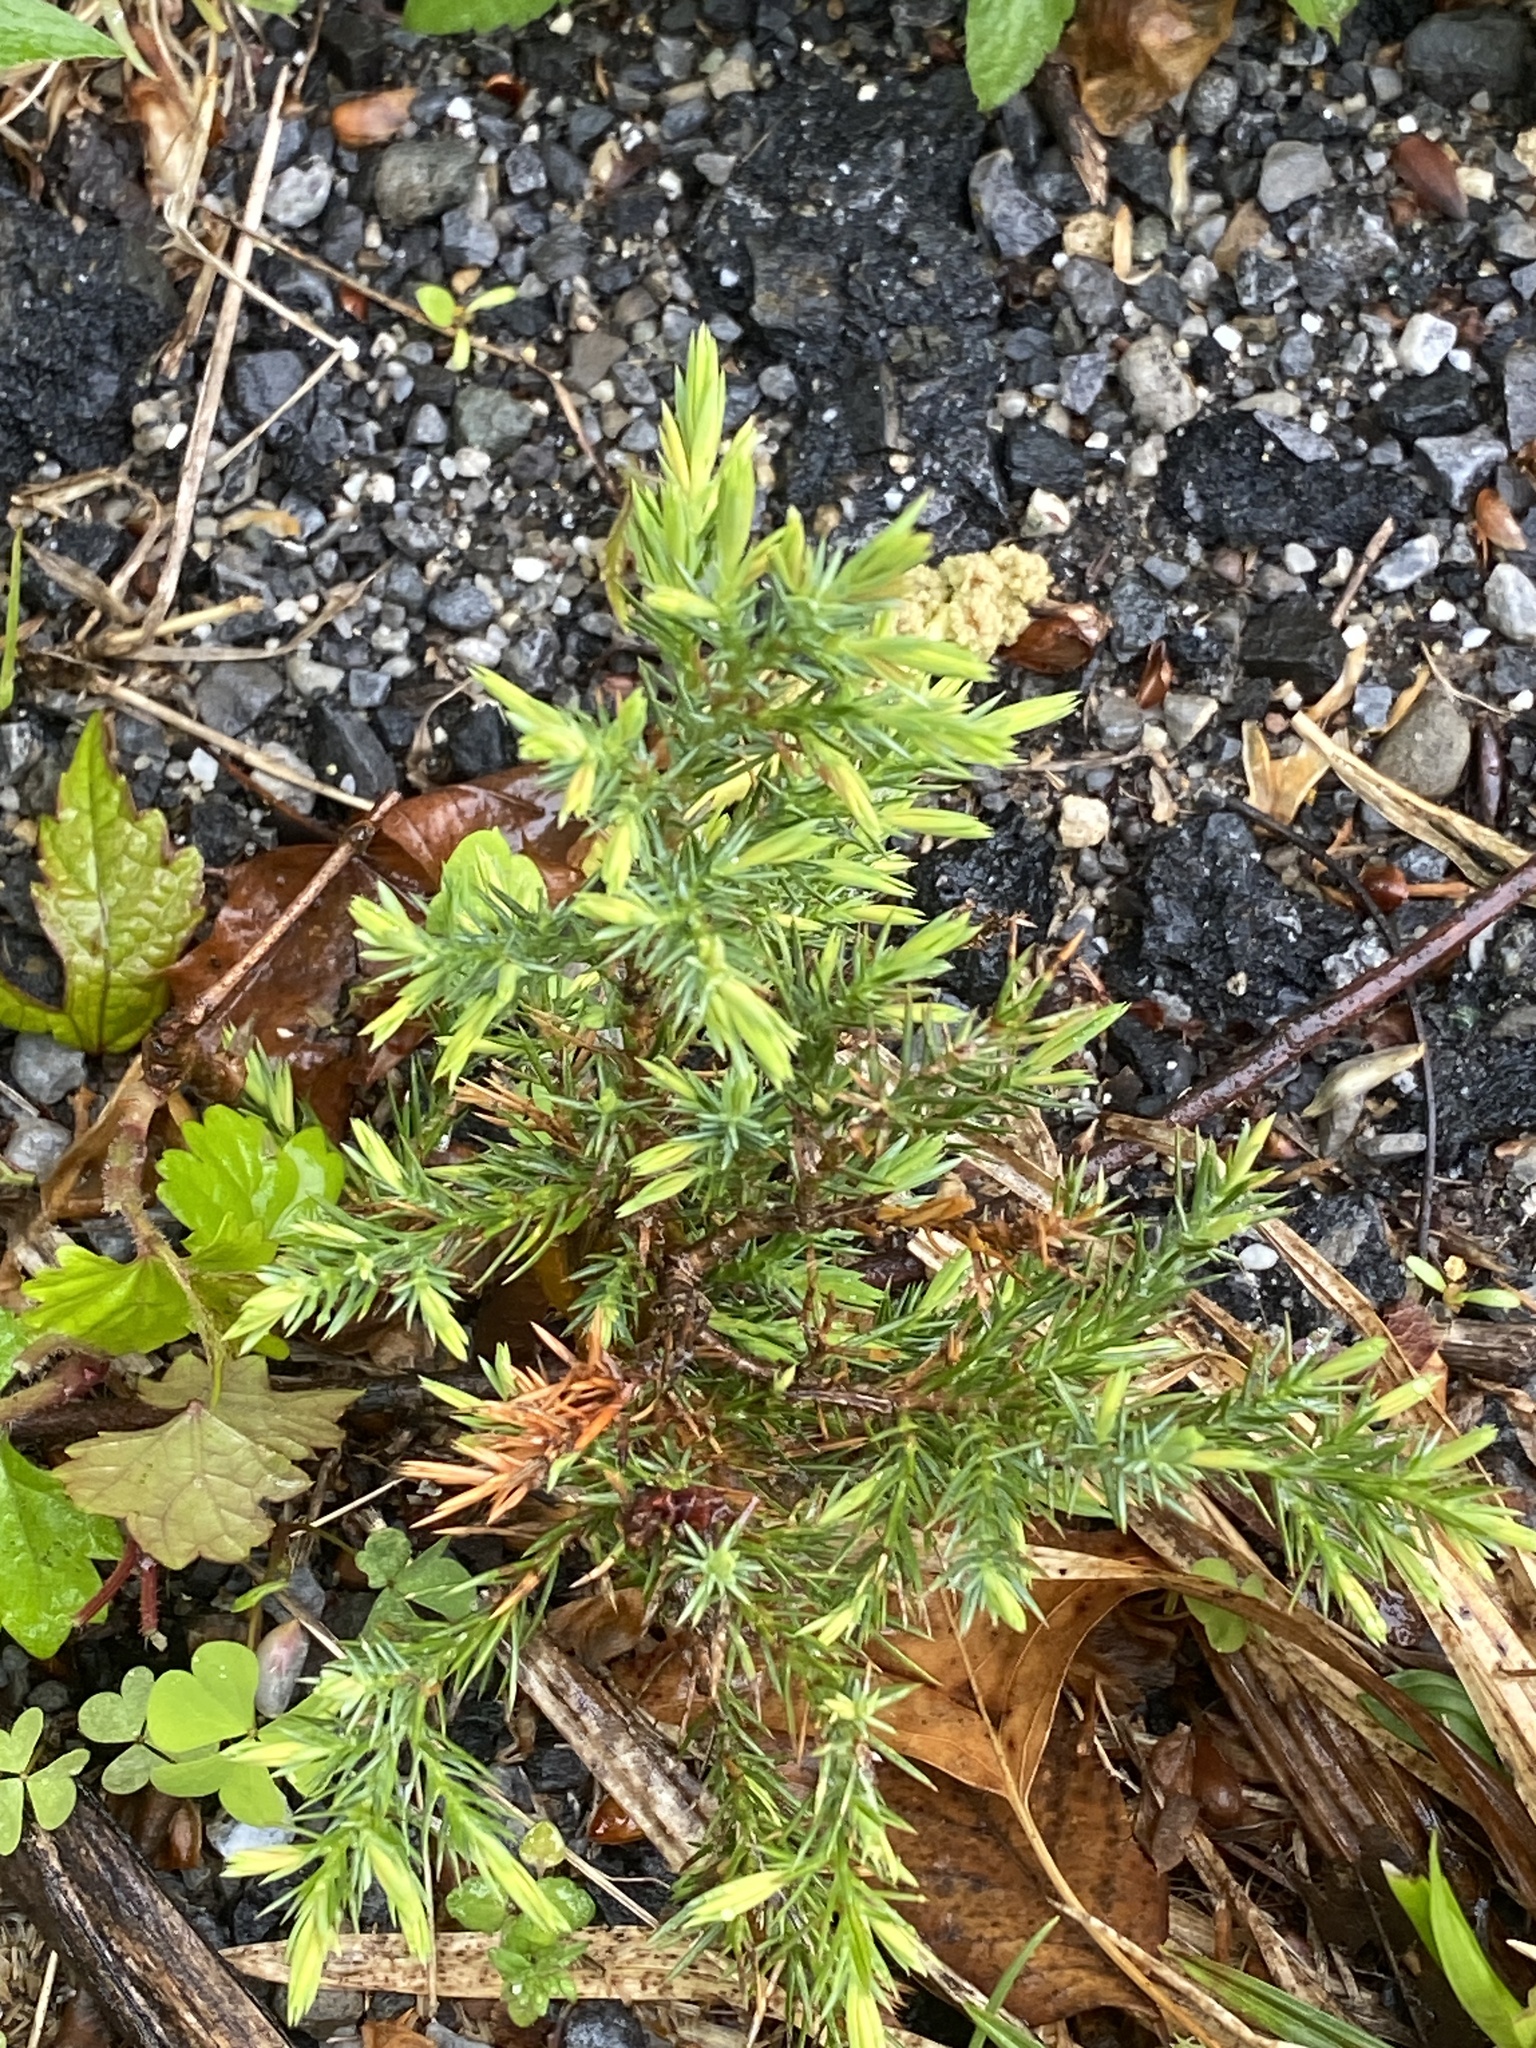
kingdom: Plantae
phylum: Tracheophyta
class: Pinopsida
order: Pinales
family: Cupressaceae
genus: Juniperus
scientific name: Juniperus virginiana
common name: Red juniper
